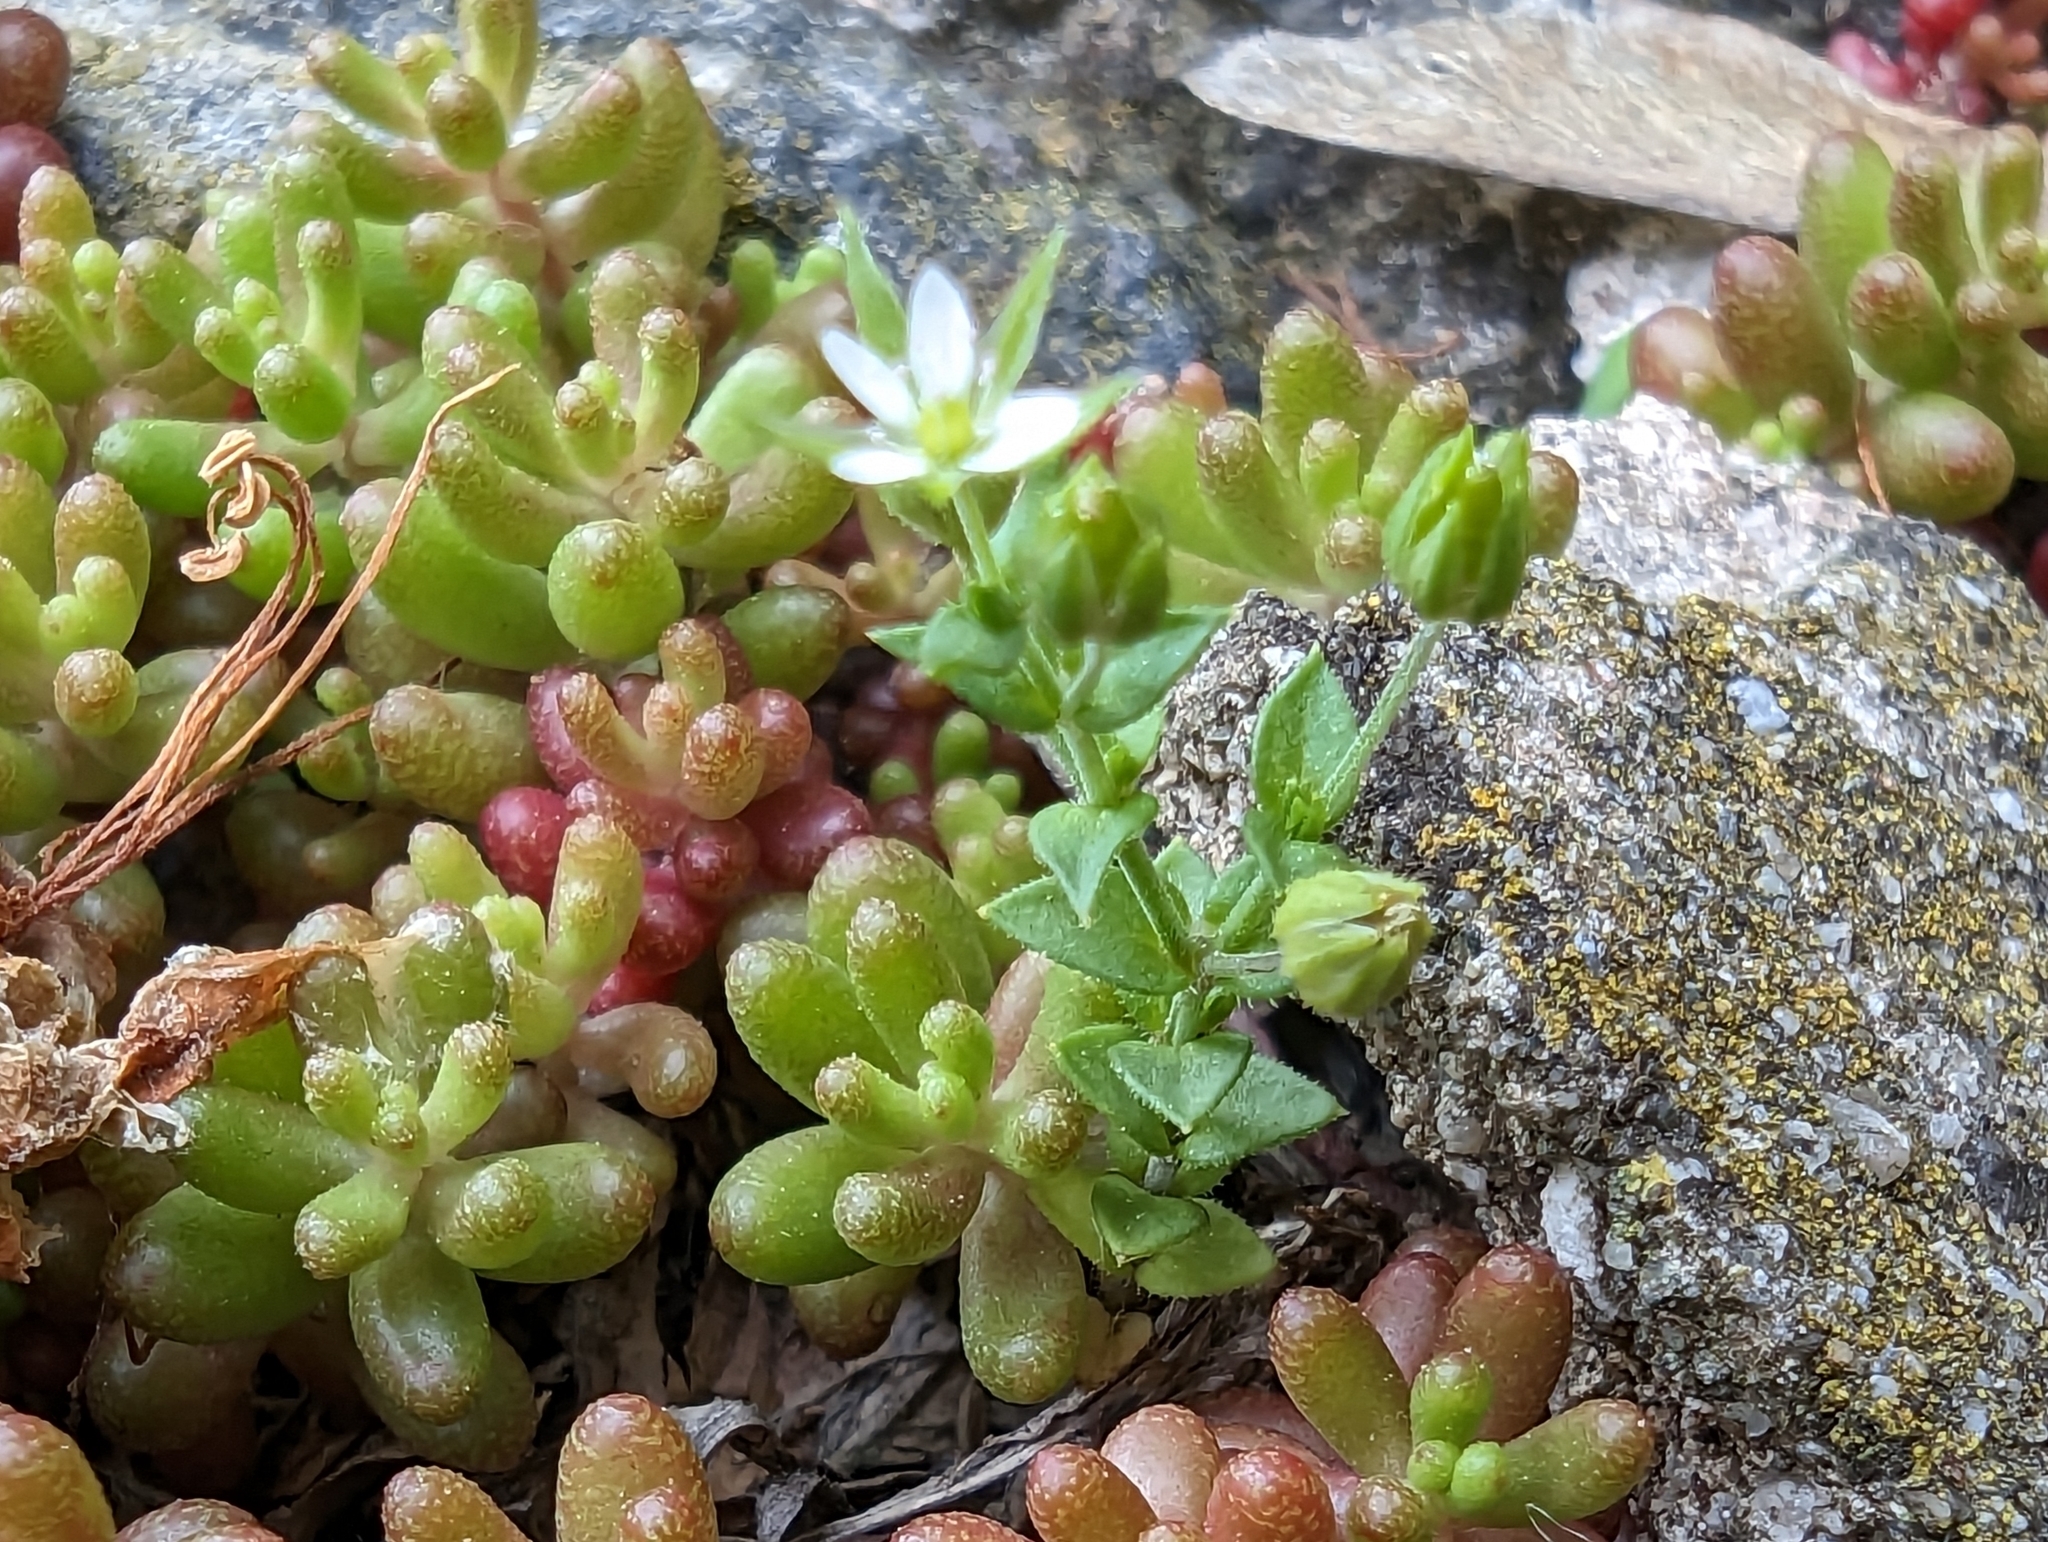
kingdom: Plantae
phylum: Tracheophyta
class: Magnoliopsida
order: Caryophyllales
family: Caryophyllaceae
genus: Arenaria
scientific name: Arenaria serpyllifolia
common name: Thyme-leaved sandwort
